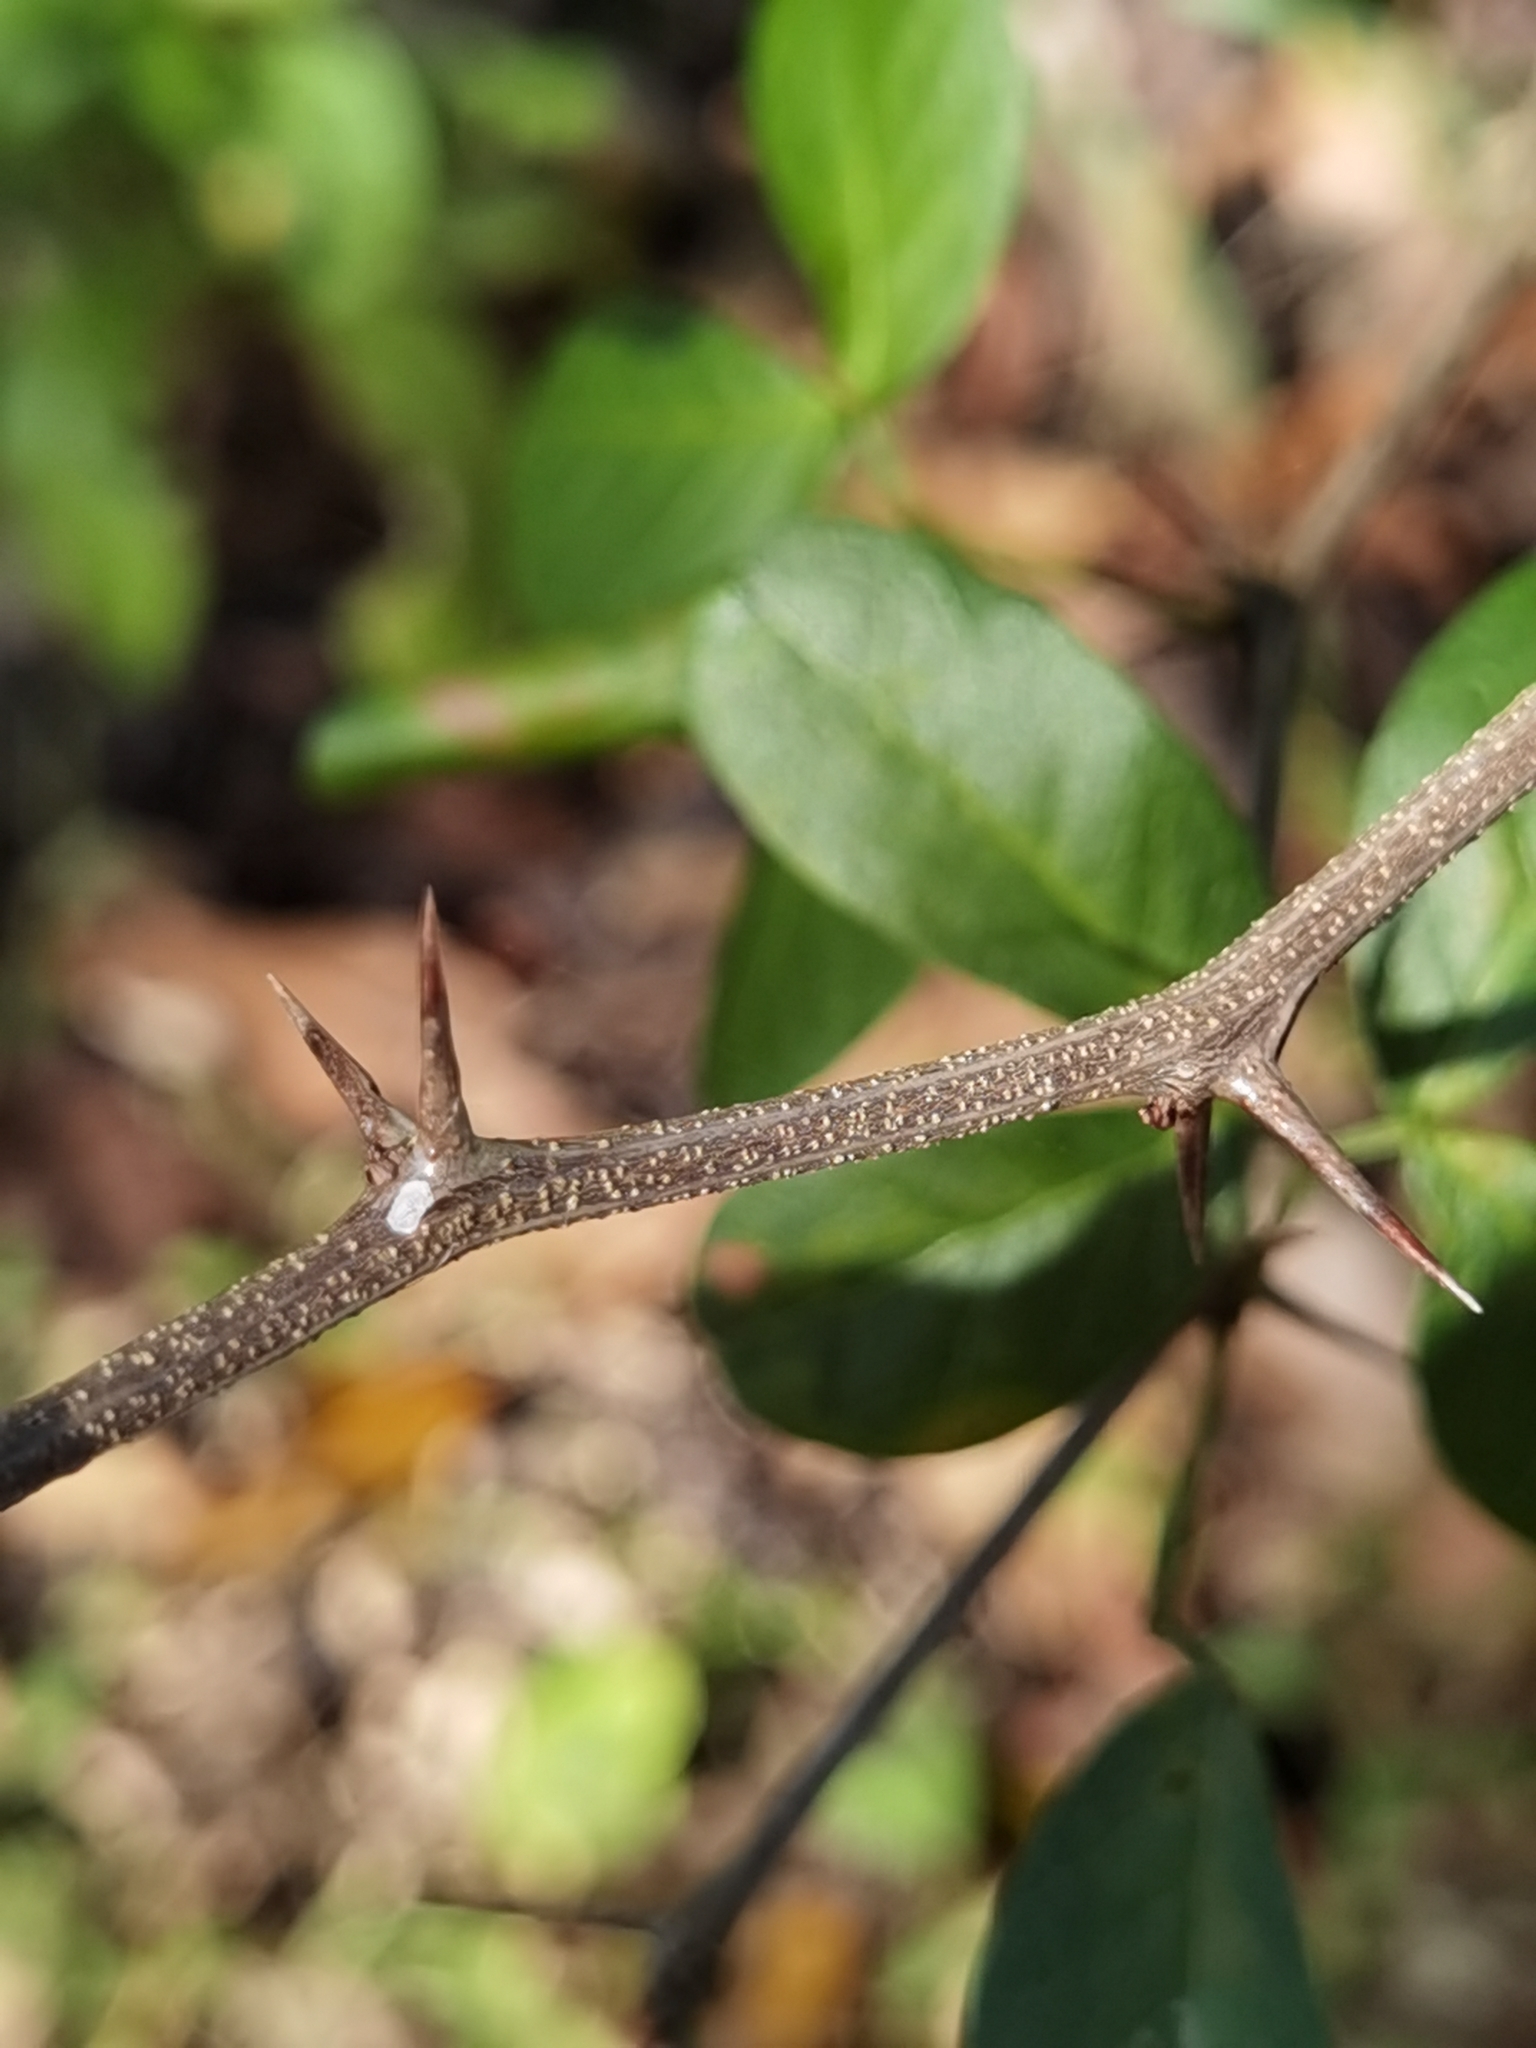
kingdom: Plantae
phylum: Tracheophyta
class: Magnoliopsida
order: Fabales
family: Fabaceae
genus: Pithecellobium
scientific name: Pithecellobium lanceolatum
